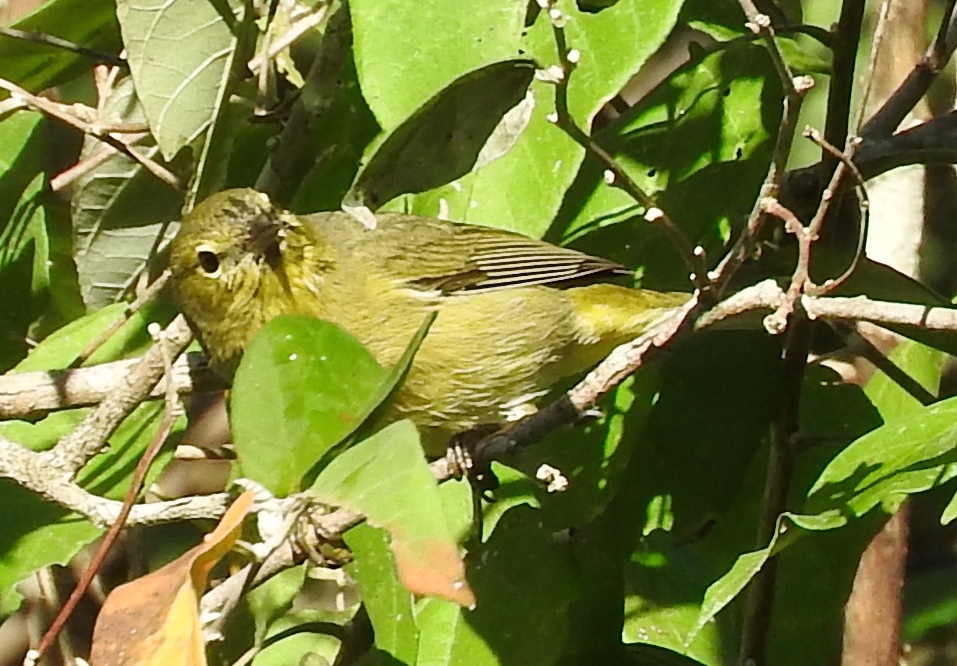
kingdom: Animalia
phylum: Chordata
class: Aves
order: Passeriformes
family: Parulidae
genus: Leiothlypis
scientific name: Leiothlypis celata
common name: Orange-crowned warbler
